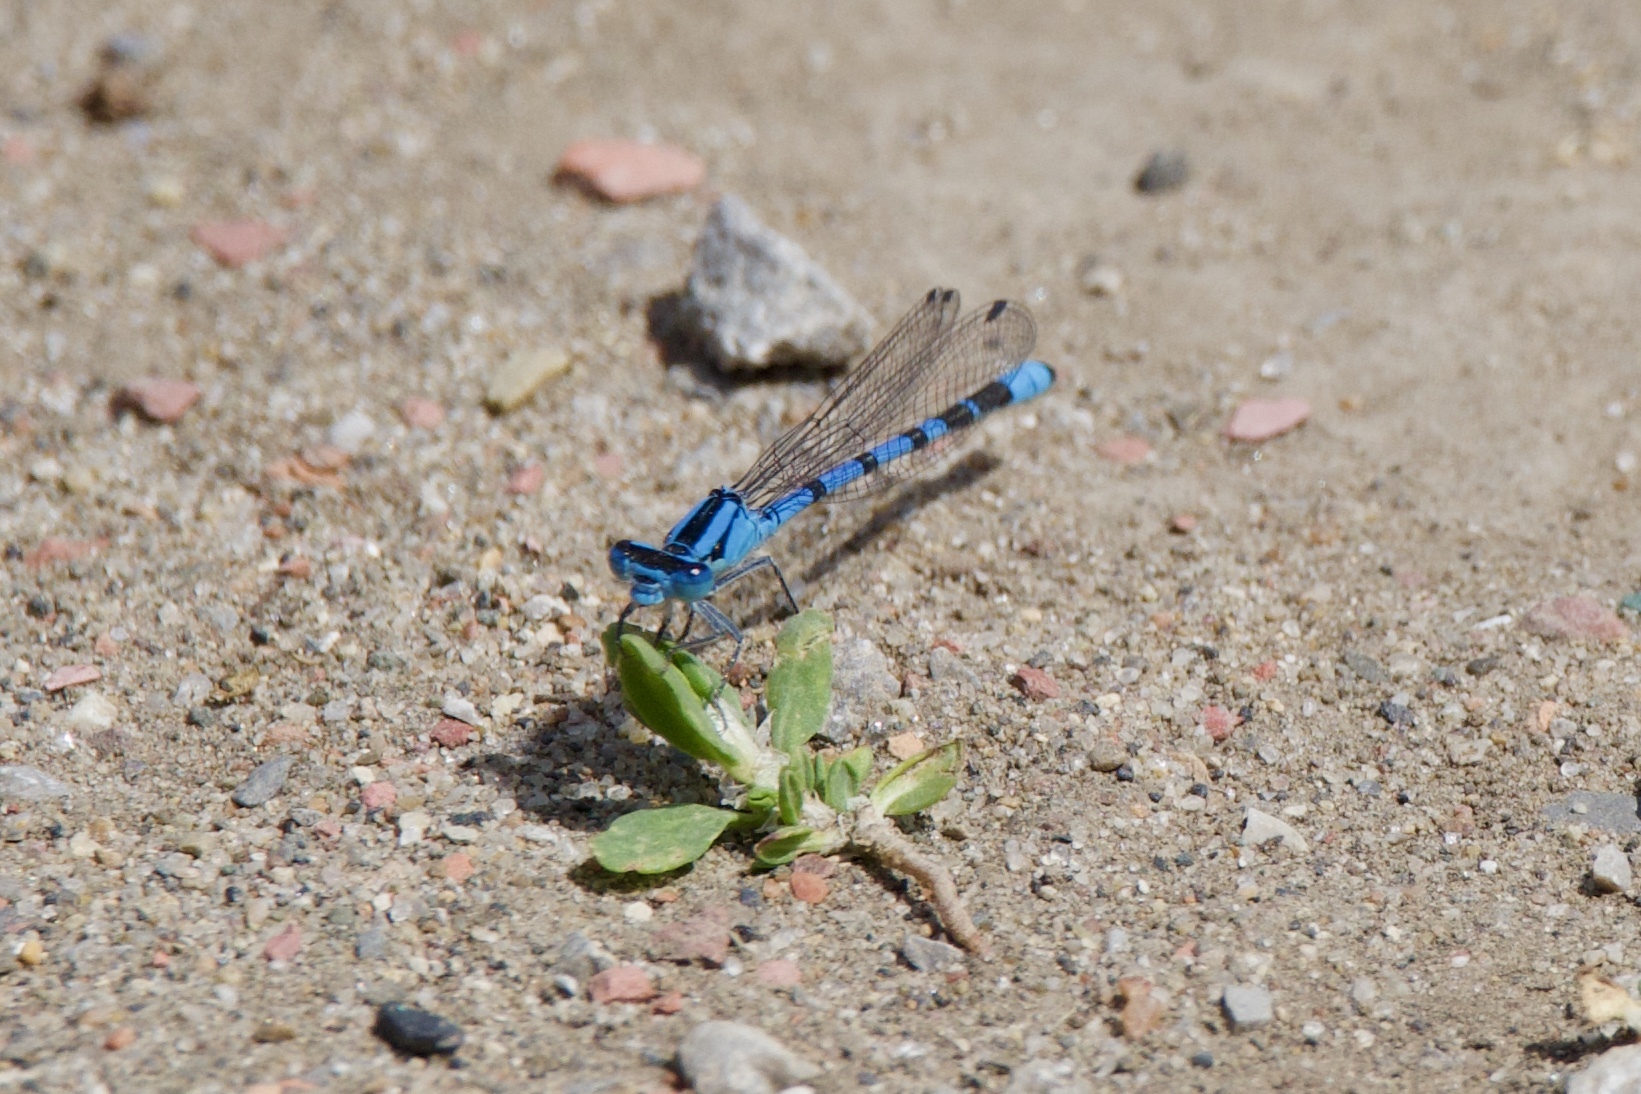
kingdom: Animalia
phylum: Arthropoda
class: Insecta
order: Odonata
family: Coenagrionidae
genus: Enallagma
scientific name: Enallagma
